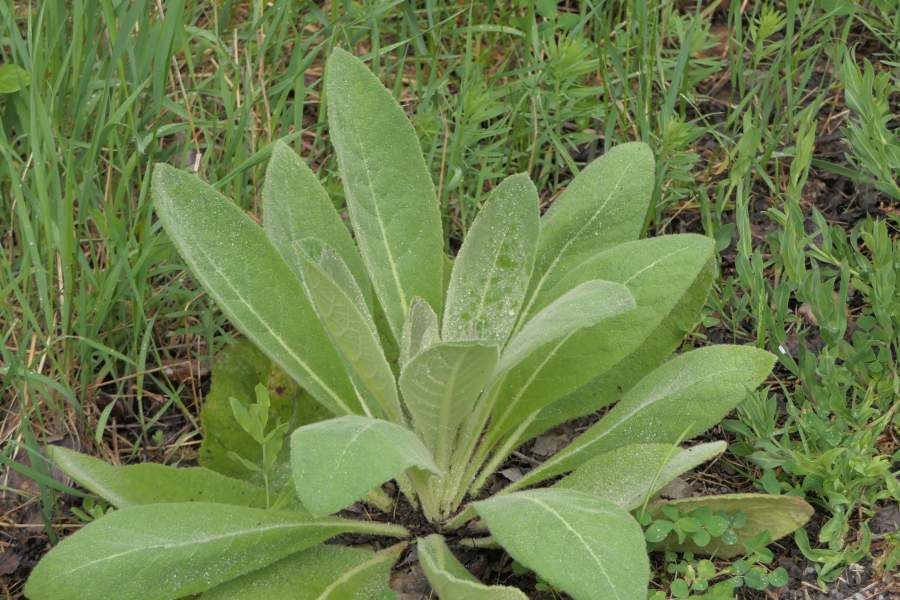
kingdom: Plantae
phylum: Tracheophyta
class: Magnoliopsida
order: Lamiales
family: Scrophulariaceae
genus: Verbascum
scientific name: Verbascum thapsus
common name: Common mullein
